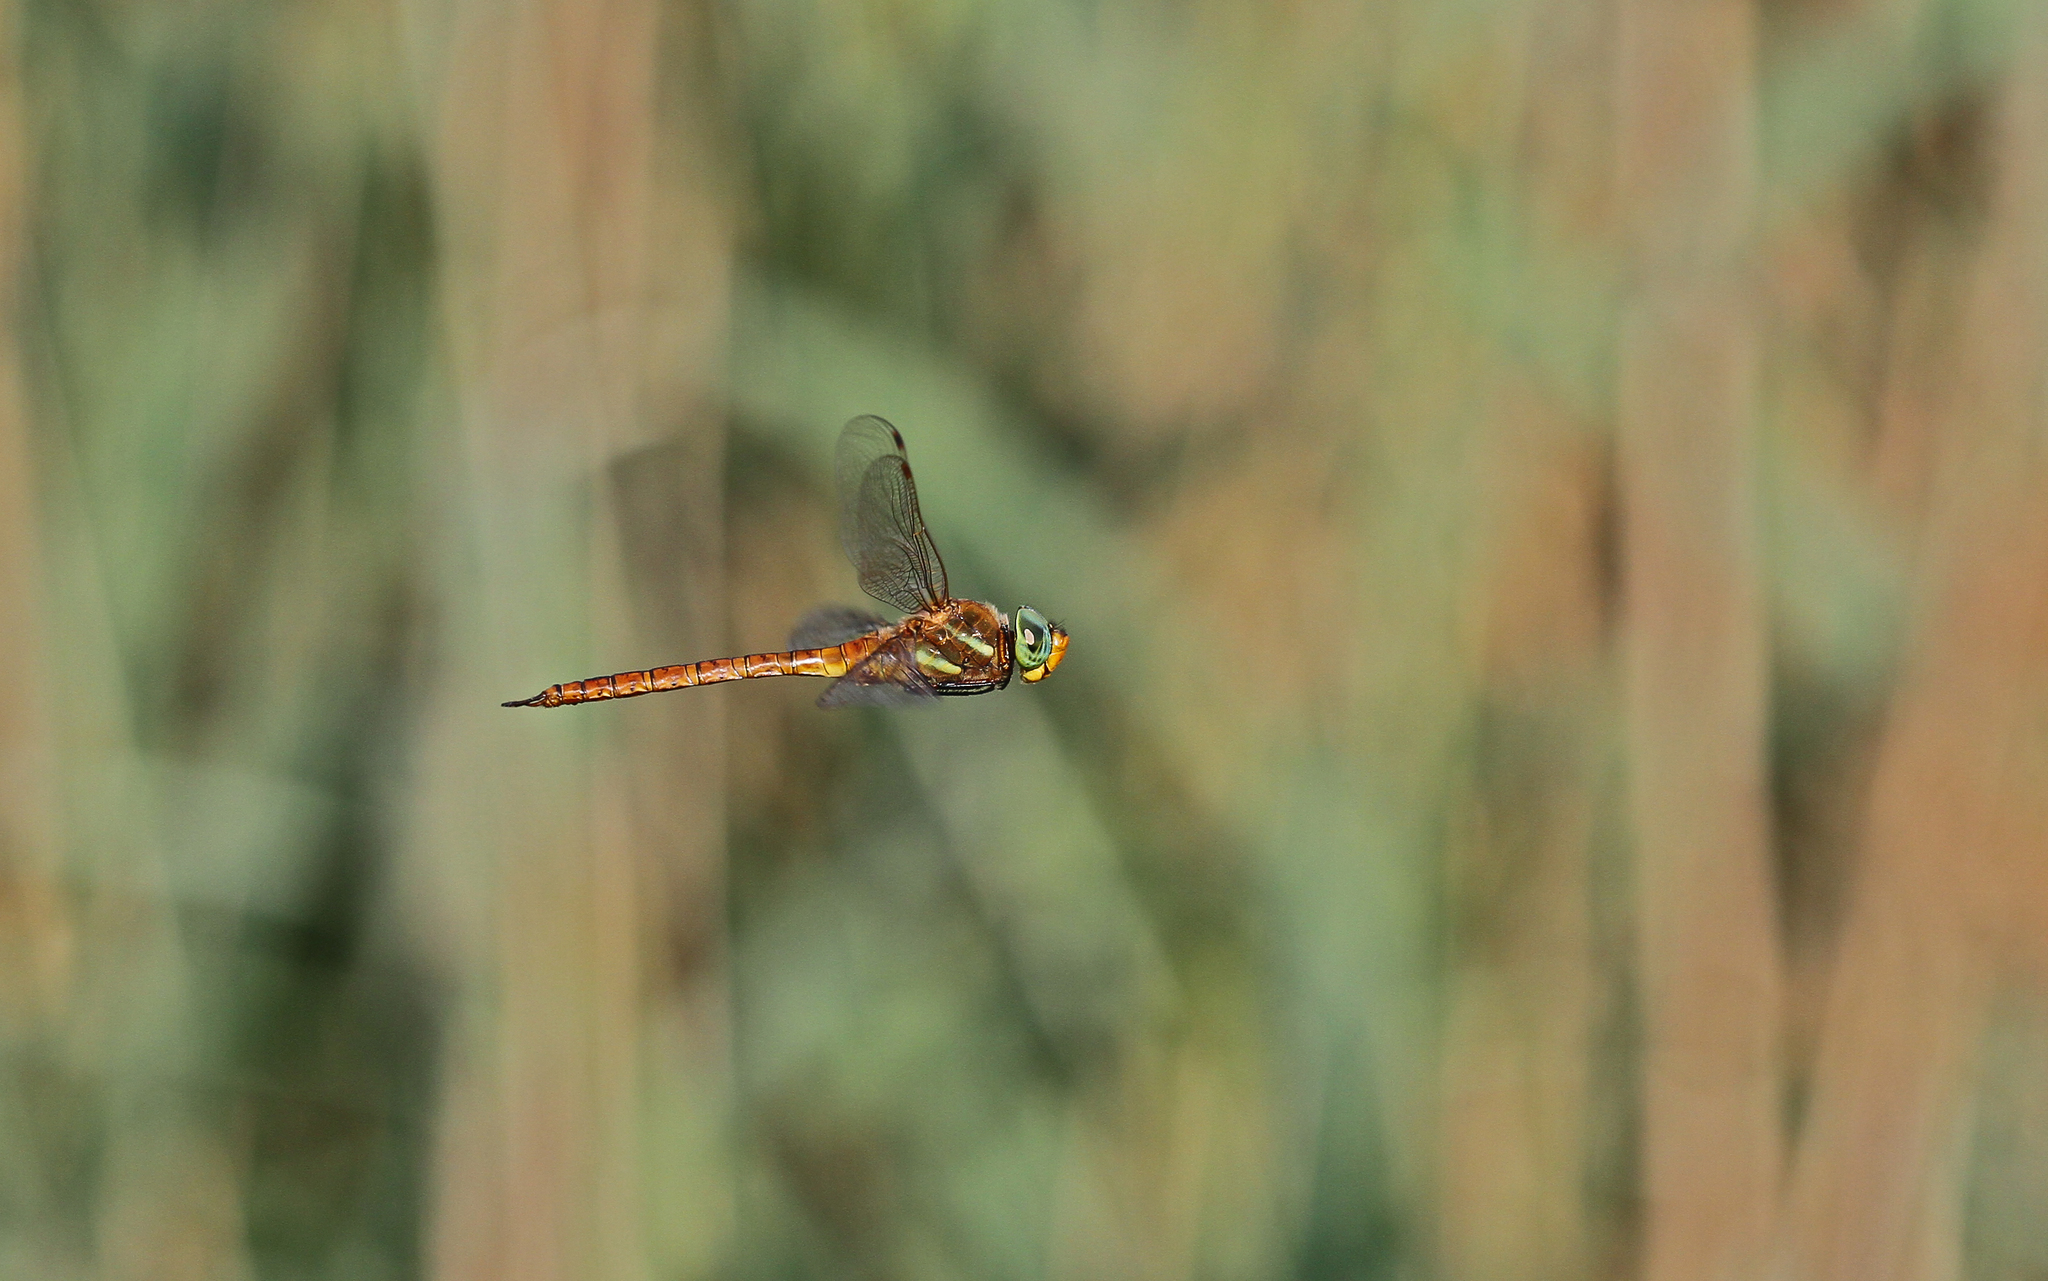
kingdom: Animalia
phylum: Arthropoda
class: Insecta
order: Odonata
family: Aeshnidae
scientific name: Aeshnidae
